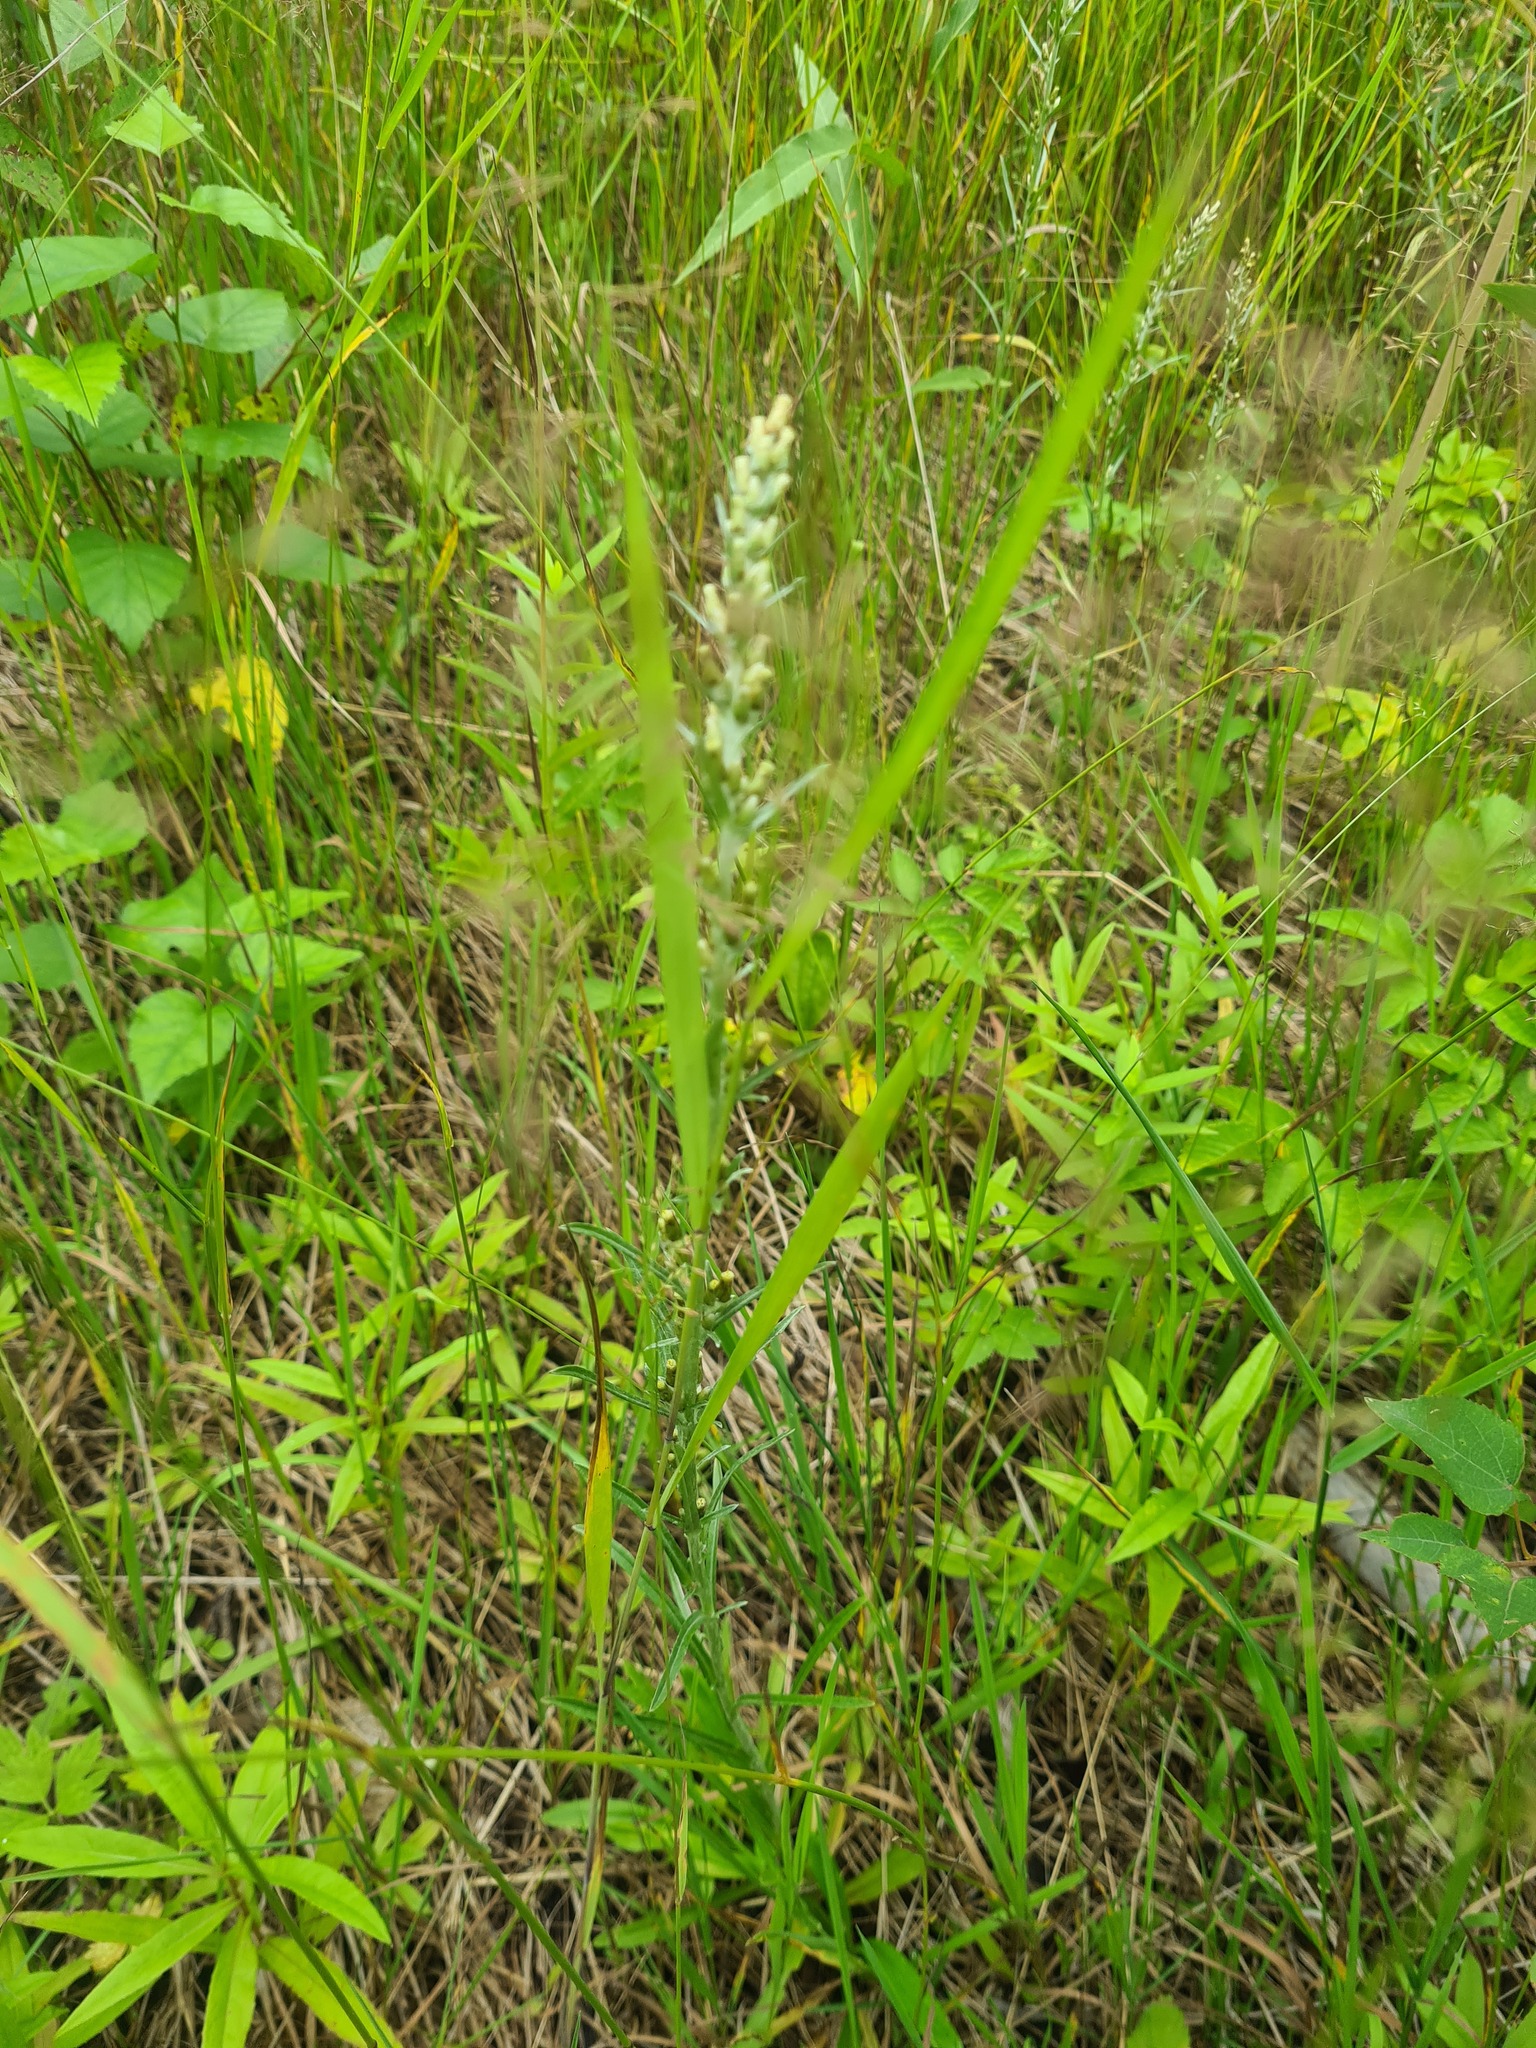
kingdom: Plantae
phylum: Tracheophyta
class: Magnoliopsida
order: Asterales
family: Asteraceae
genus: Omalotheca
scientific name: Omalotheca sylvatica
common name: Heath cudweed
